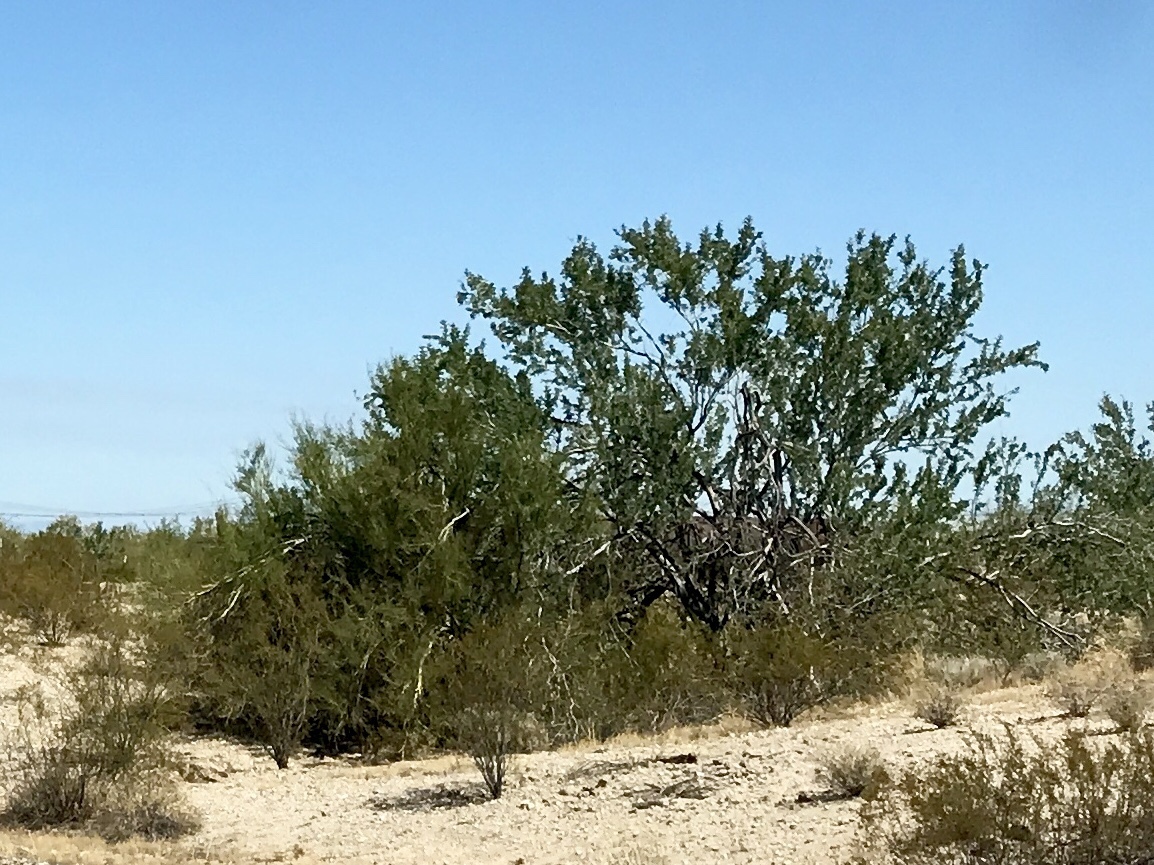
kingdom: Plantae
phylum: Tracheophyta
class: Magnoliopsida
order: Fabales
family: Fabaceae
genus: Olneya
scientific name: Olneya tesota
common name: Desert ironwood
